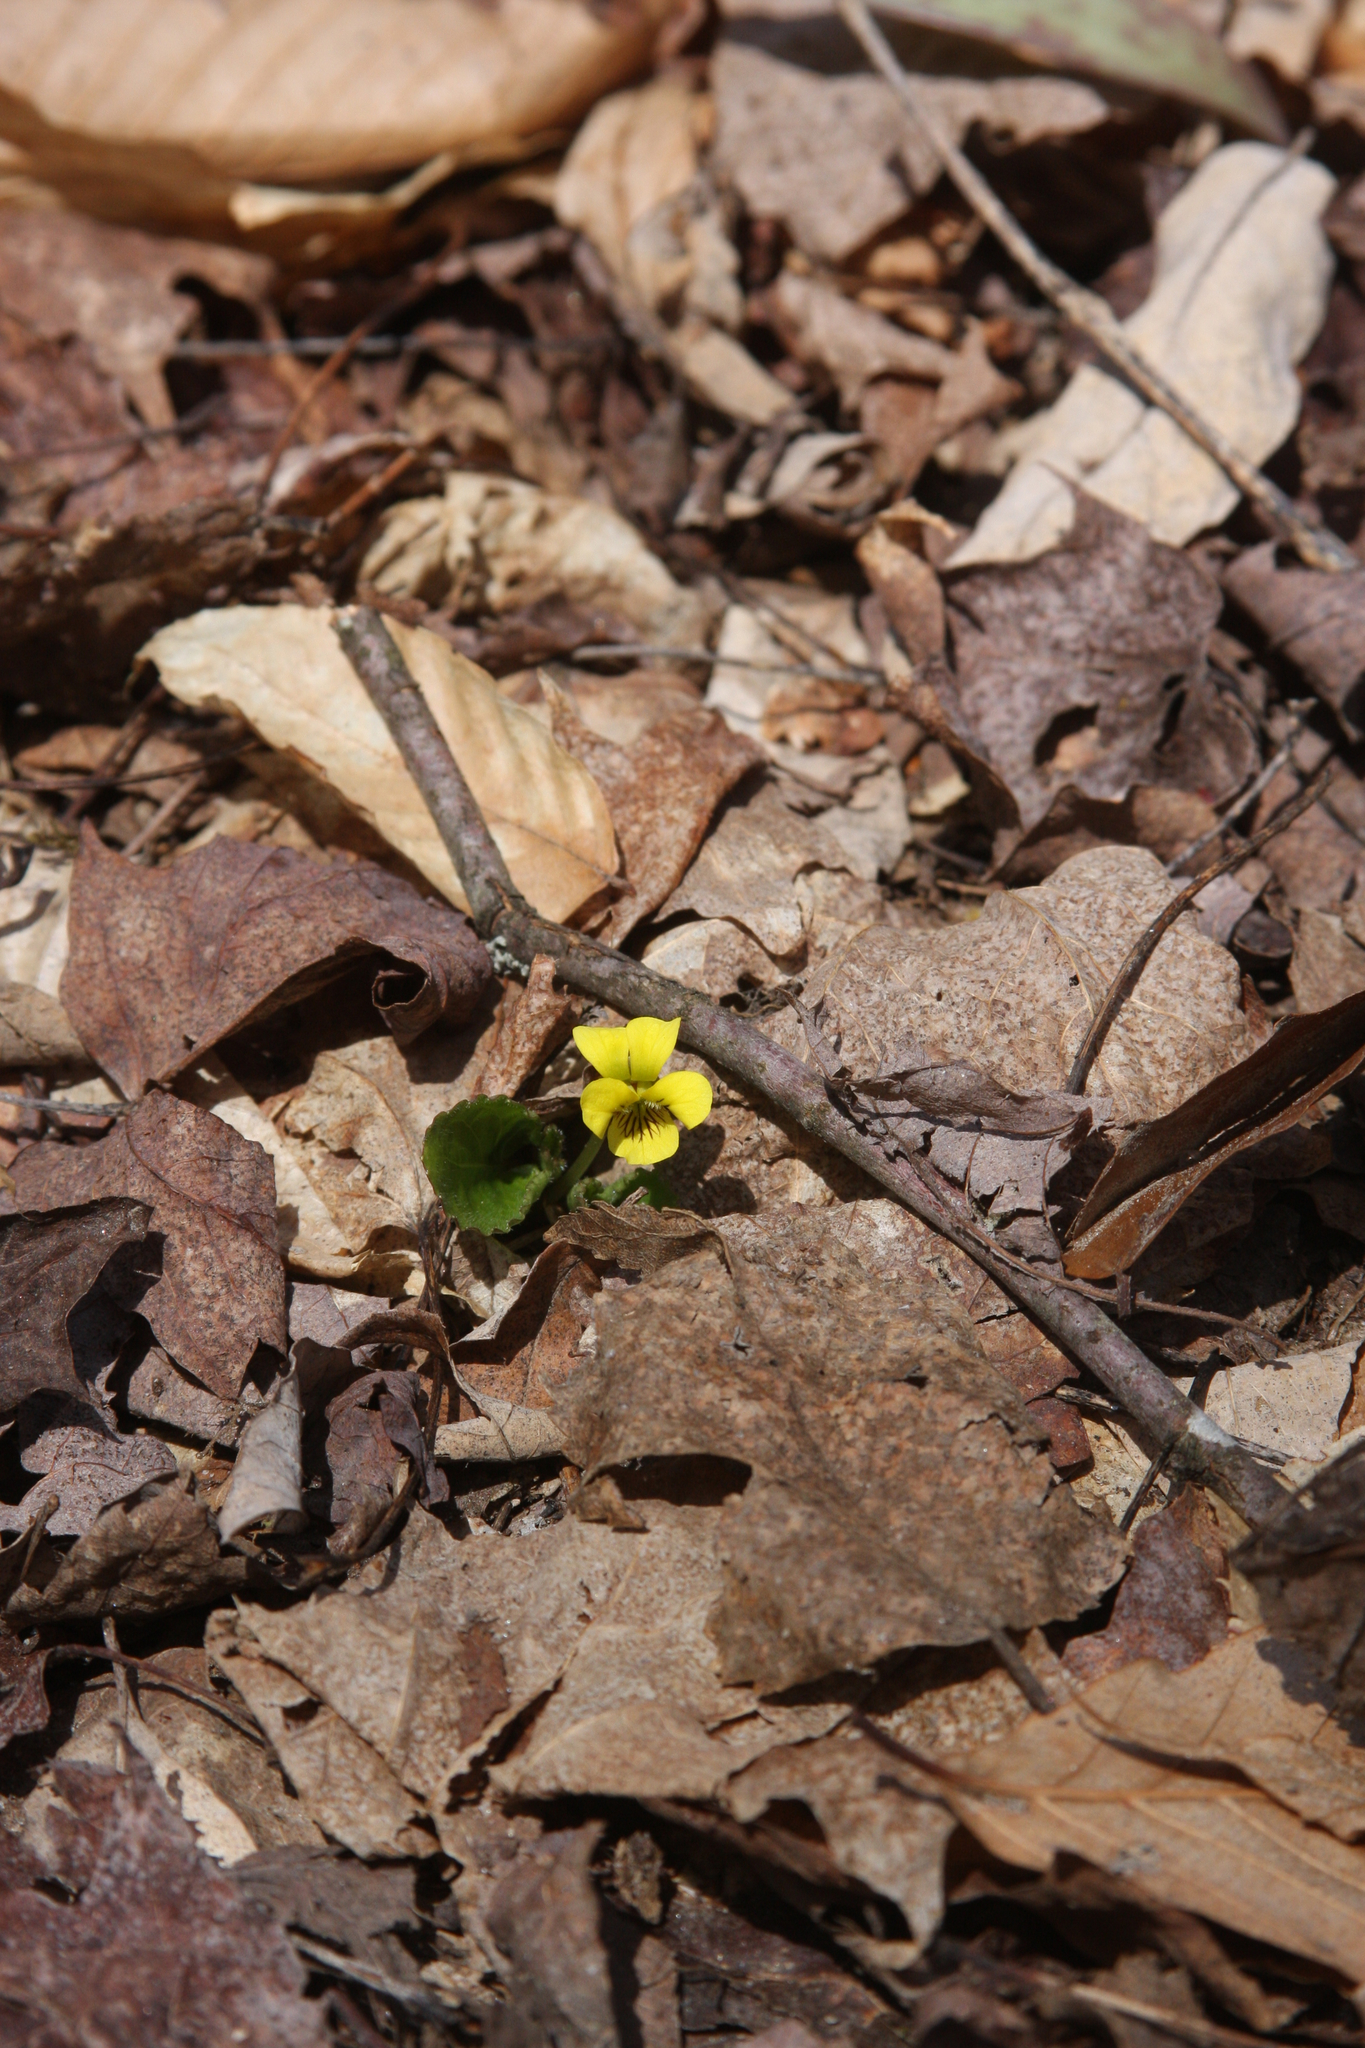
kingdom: Plantae
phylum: Tracheophyta
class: Magnoliopsida
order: Malpighiales
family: Violaceae
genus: Viola
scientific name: Viola rotundifolia
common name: Early yellow violet
